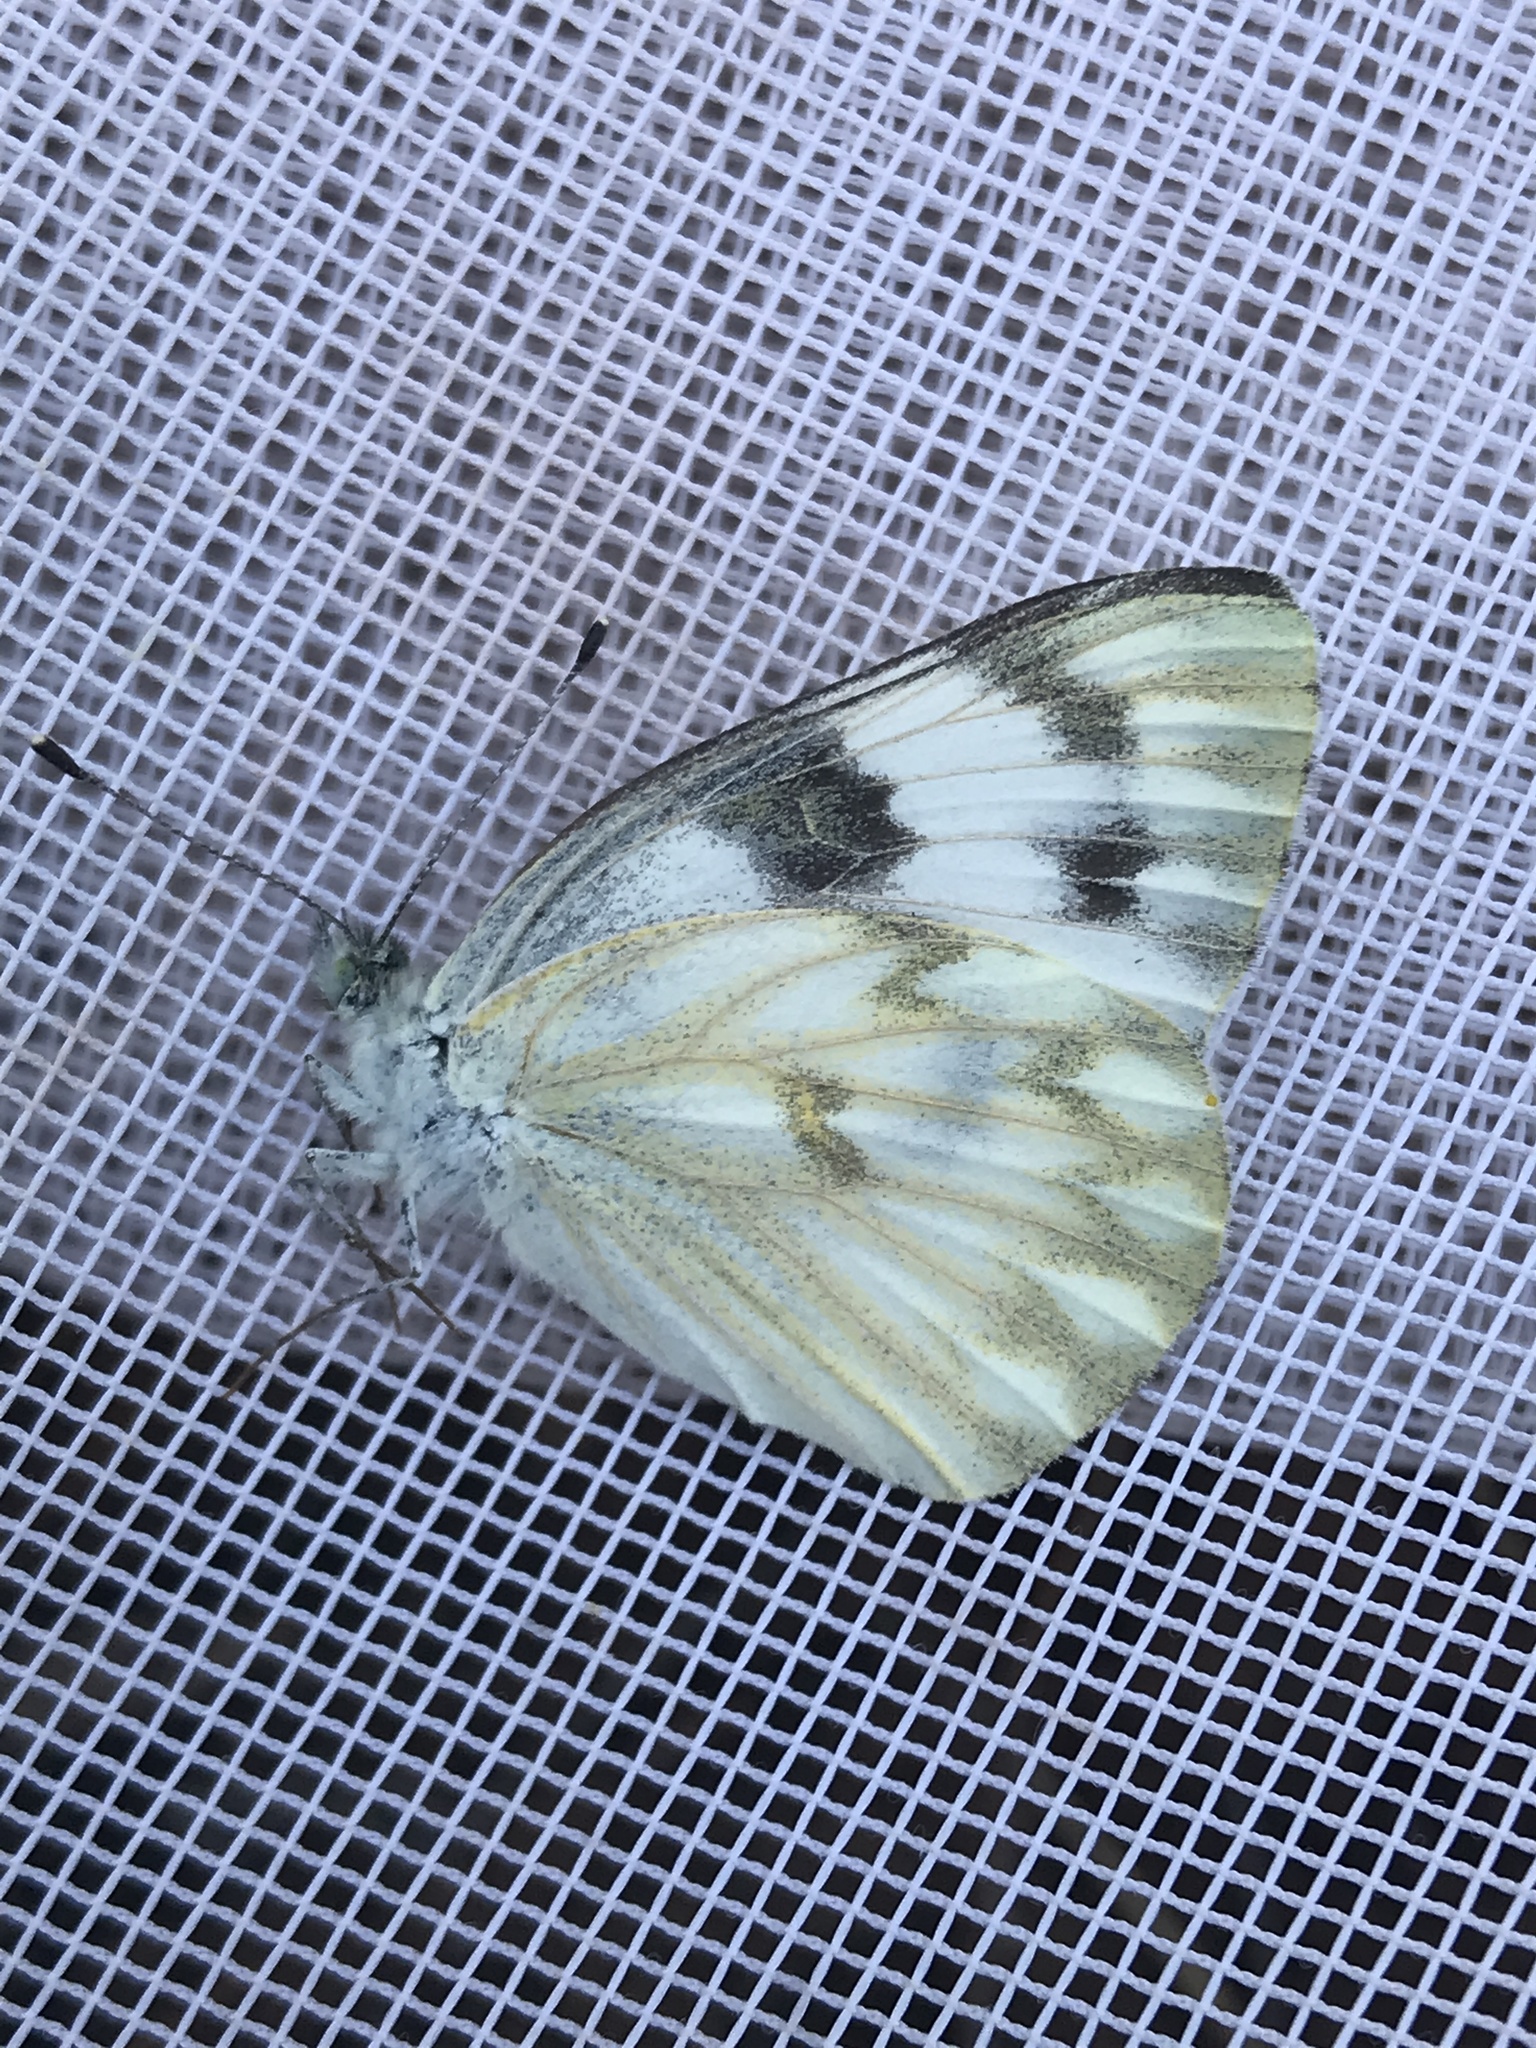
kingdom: Animalia
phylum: Arthropoda
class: Insecta
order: Lepidoptera
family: Pieridae
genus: Pontia
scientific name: Pontia protodice
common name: Checkered white
